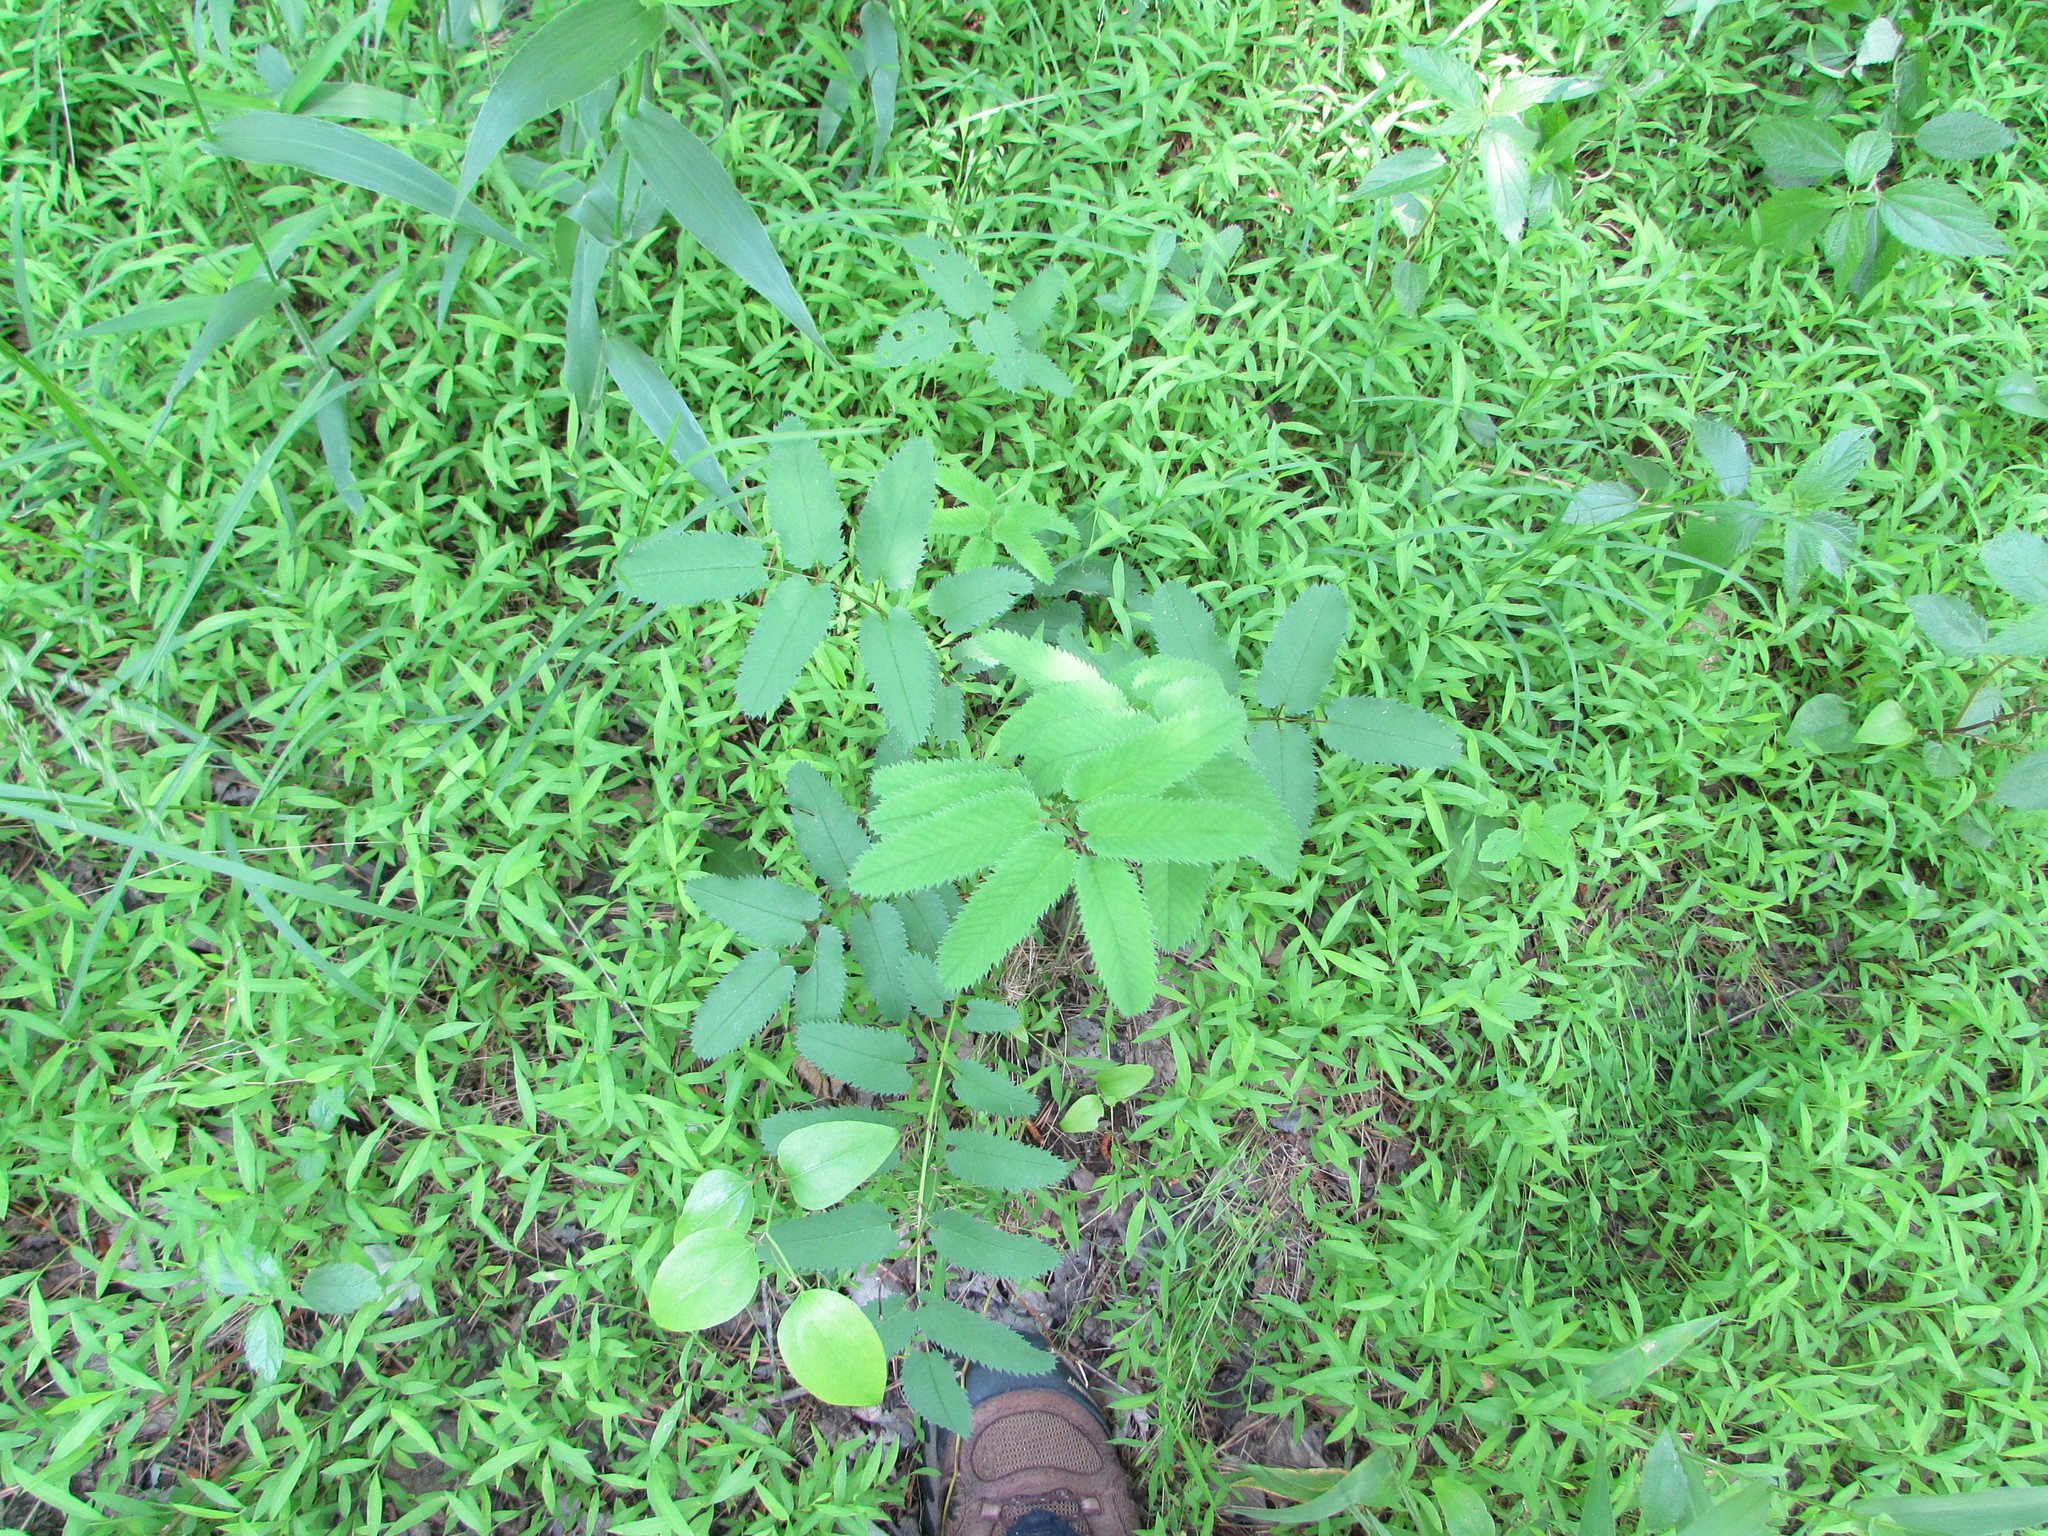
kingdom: Plantae
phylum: Tracheophyta
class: Magnoliopsida
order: Rosales
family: Rosaceae
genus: Sanguisorba
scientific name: Sanguisorba canadensis
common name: White burnet
